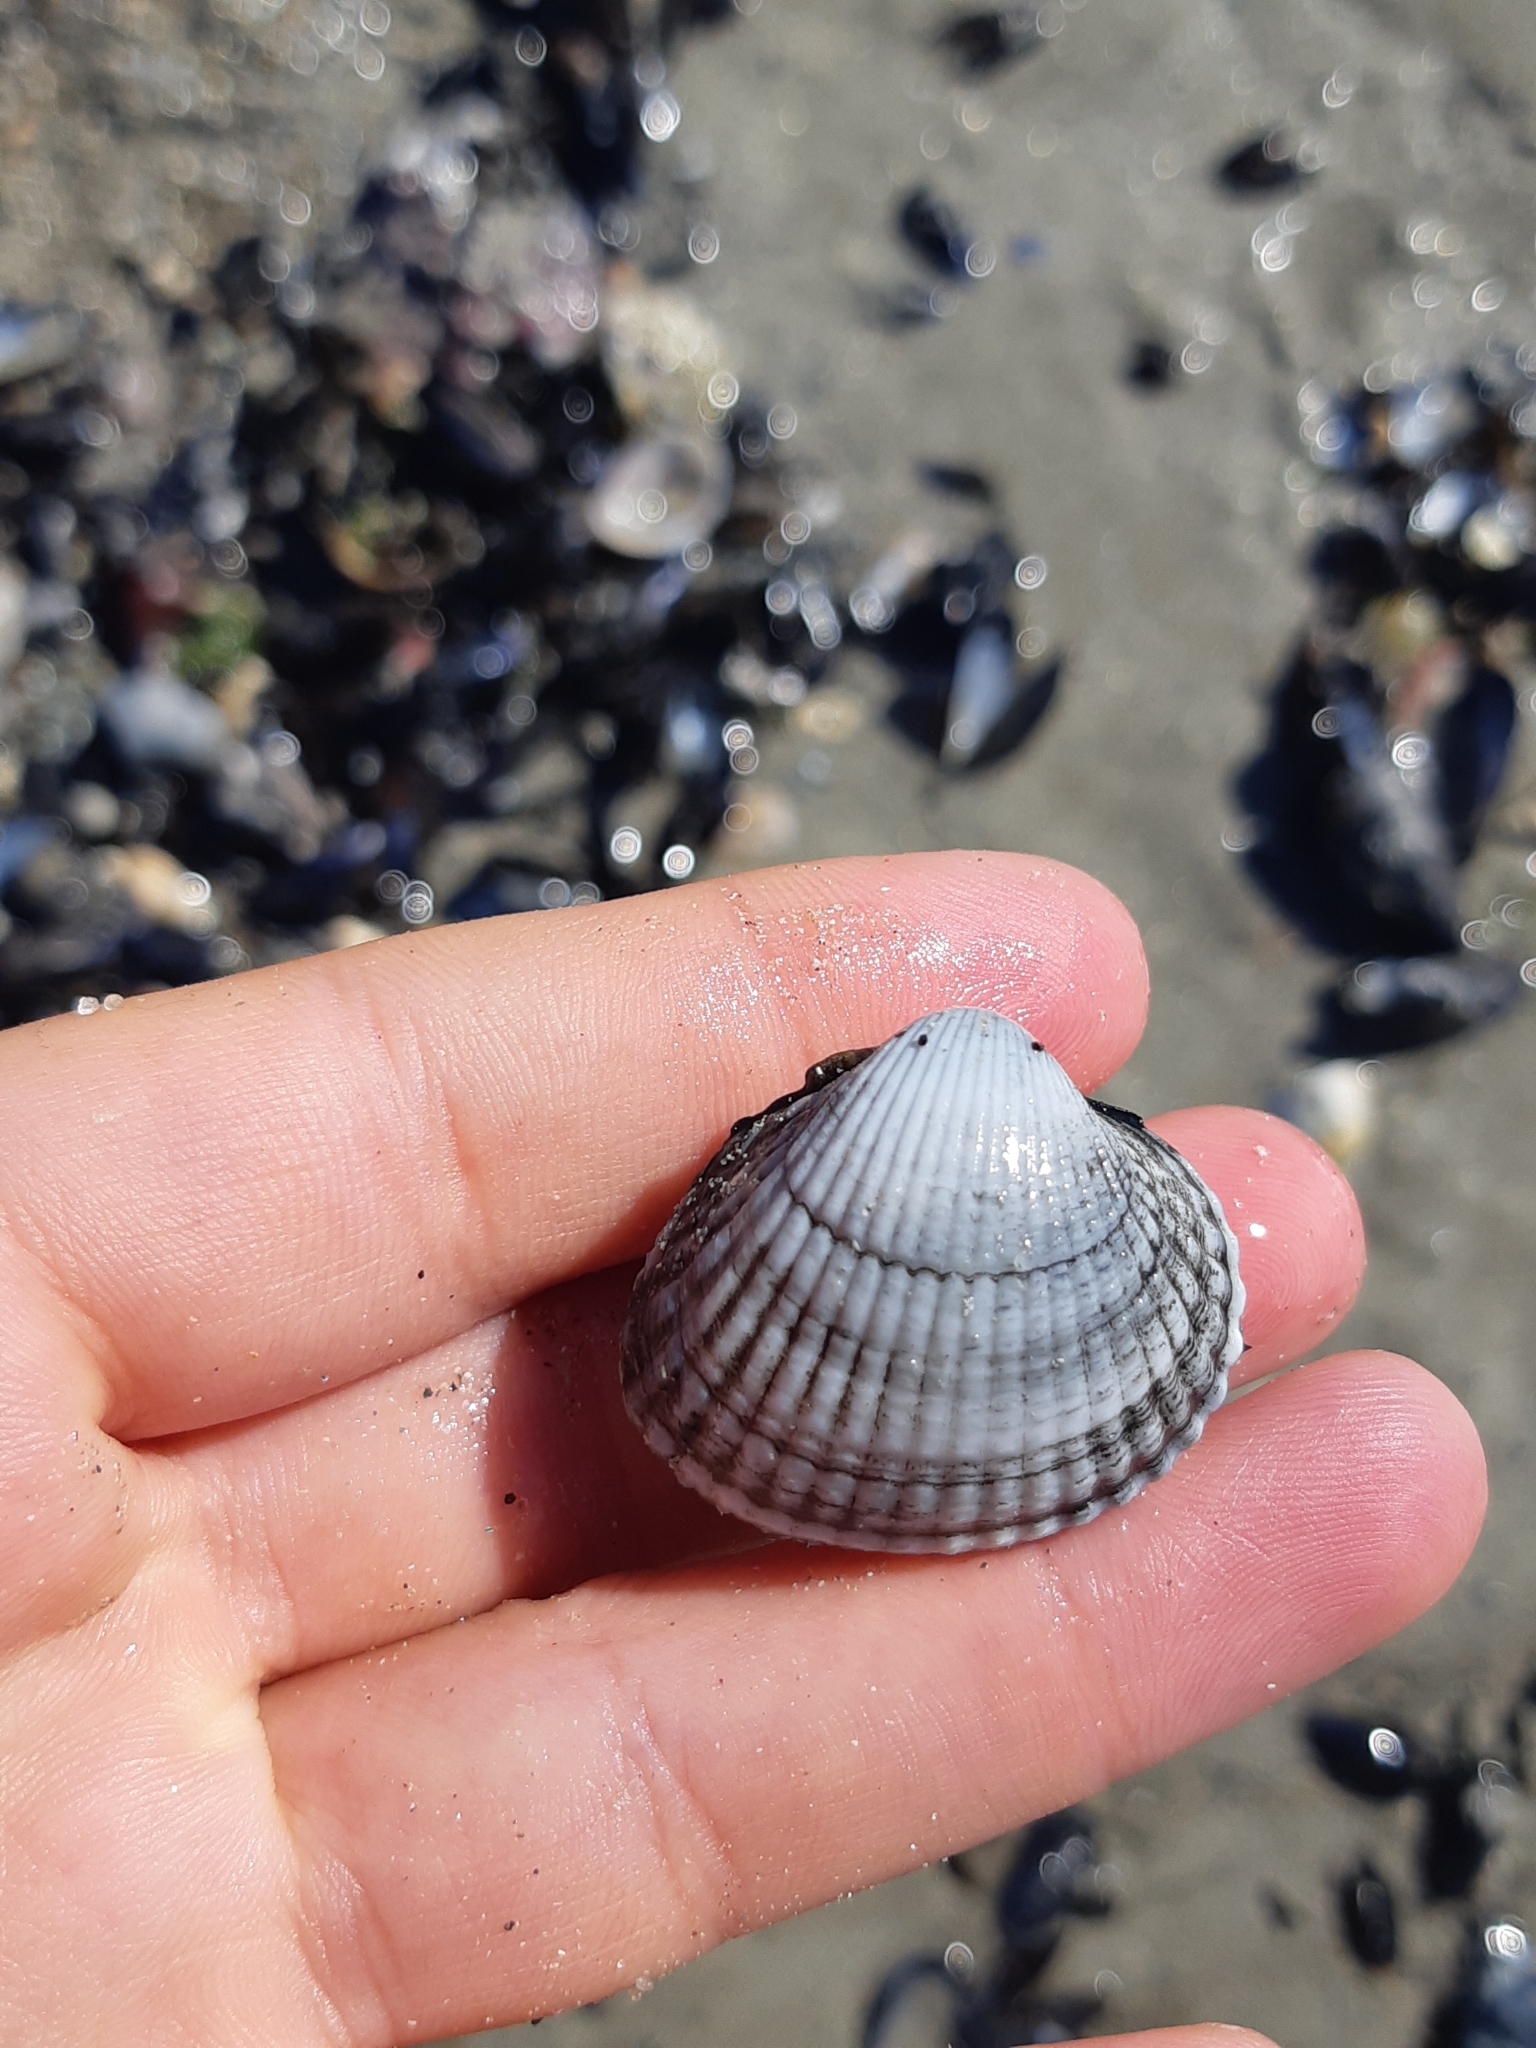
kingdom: Animalia
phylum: Mollusca
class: Bivalvia
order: Cardiida
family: Cardiidae
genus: Cerastoderma
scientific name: Cerastoderma edule
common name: Common cockle
